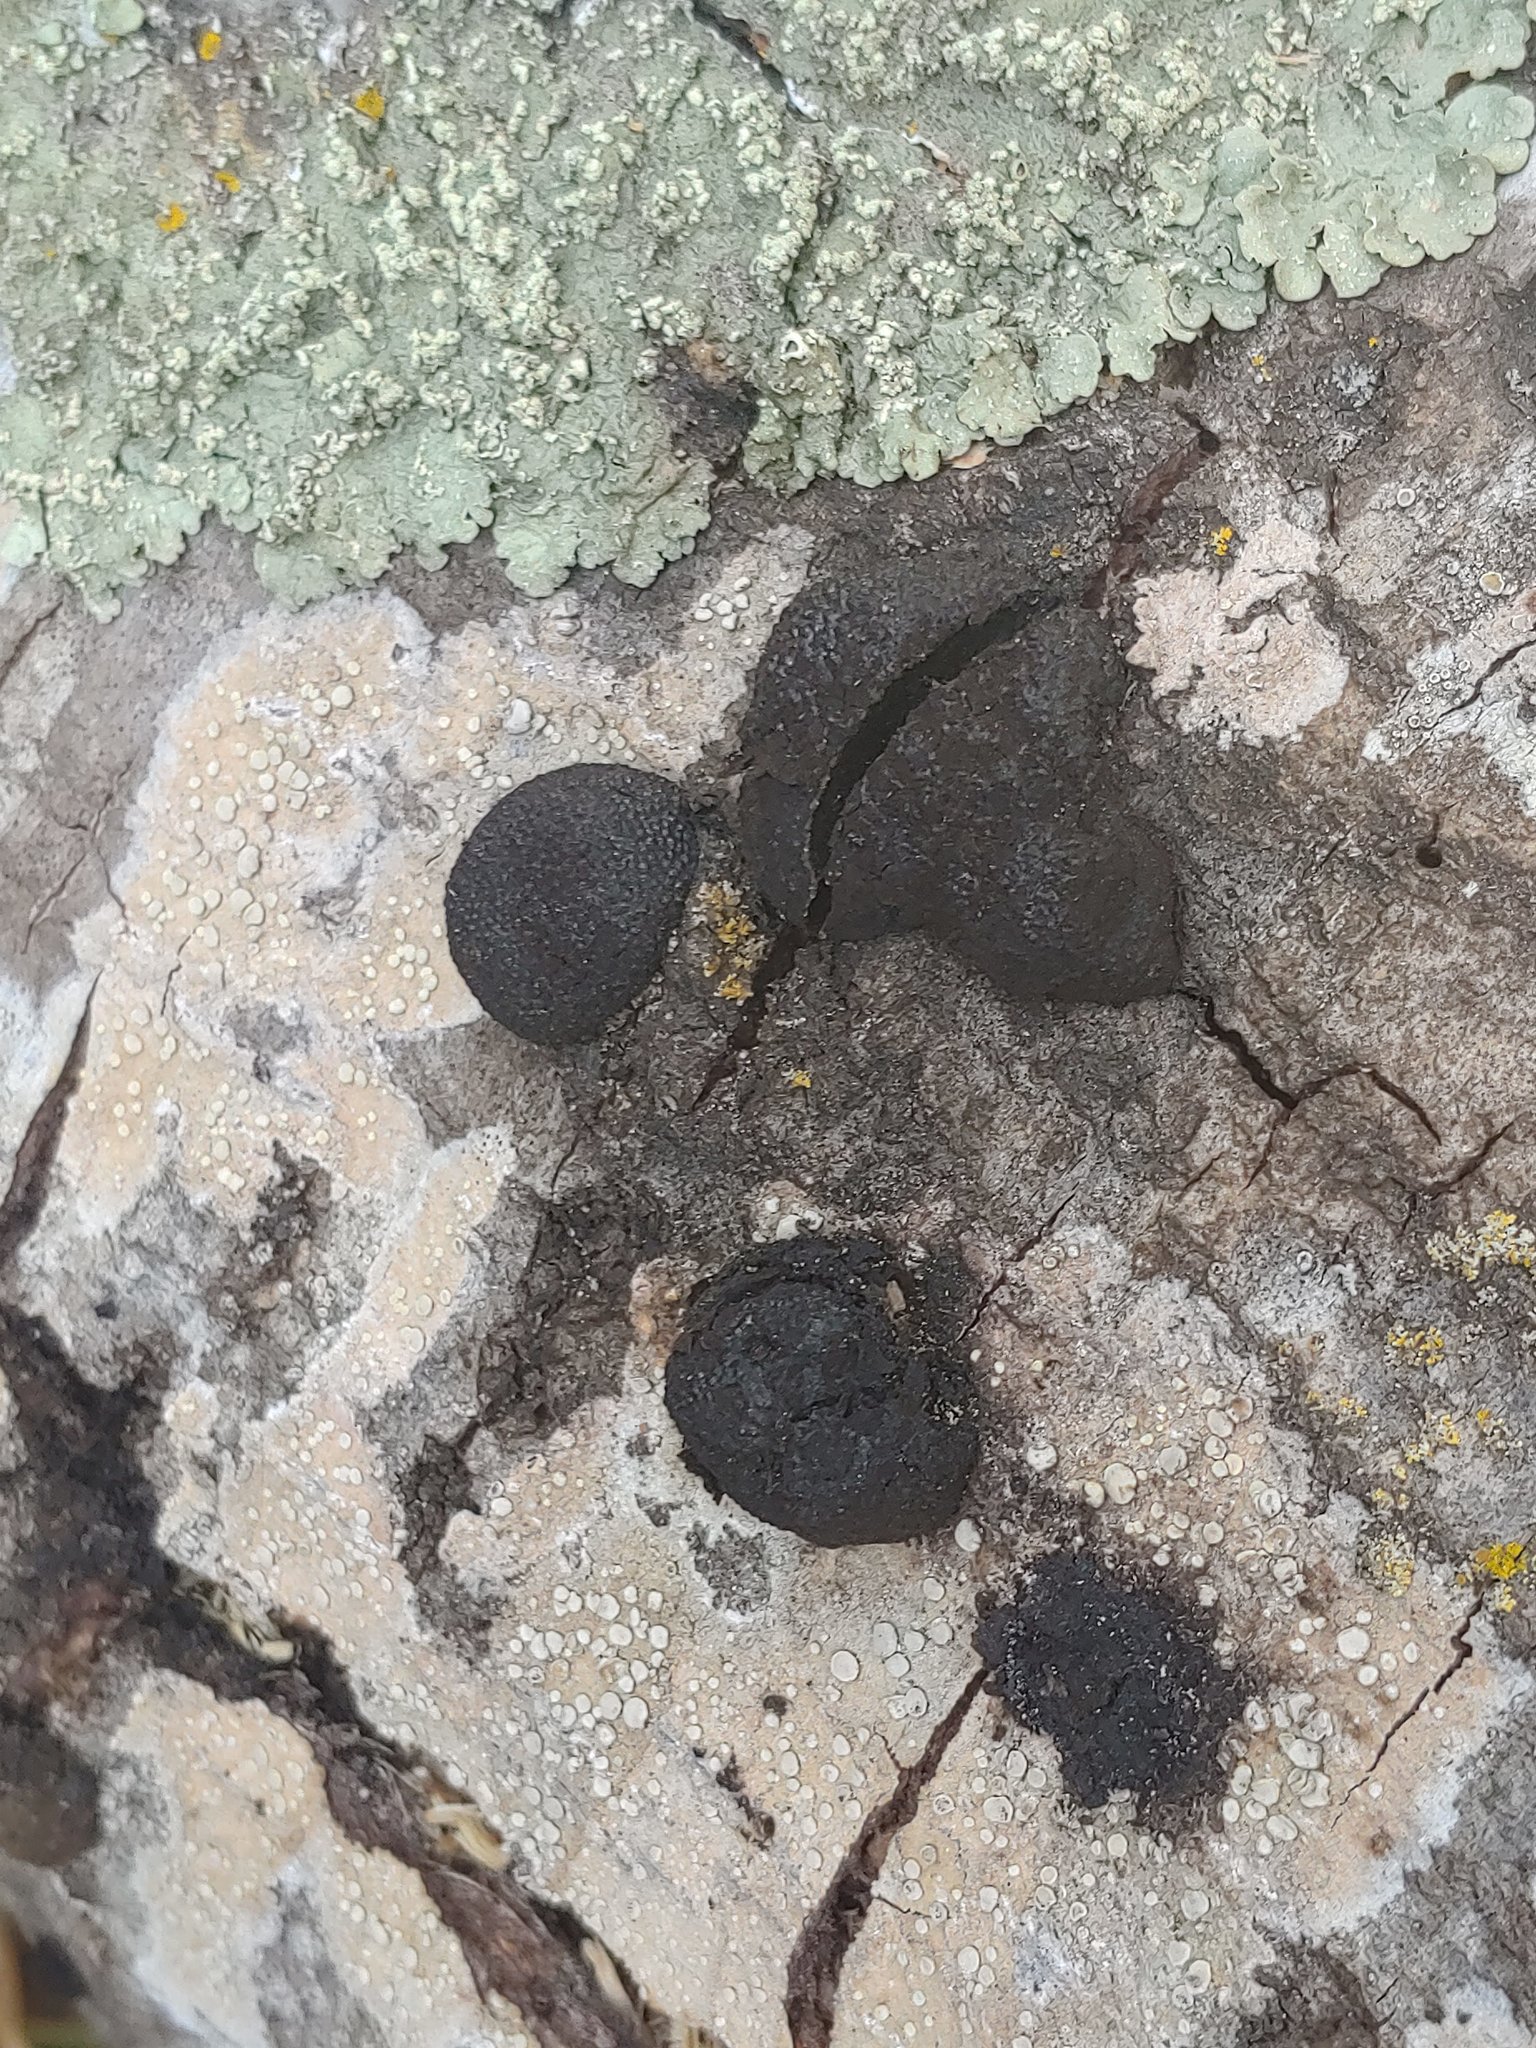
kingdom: Fungi
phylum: Ascomycota
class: Sordariomycetes
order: Xylariales
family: Hypoxylaceae
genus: Annulohypoxylon
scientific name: Annulohypoxylon thouarsianum
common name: Cramp balls
